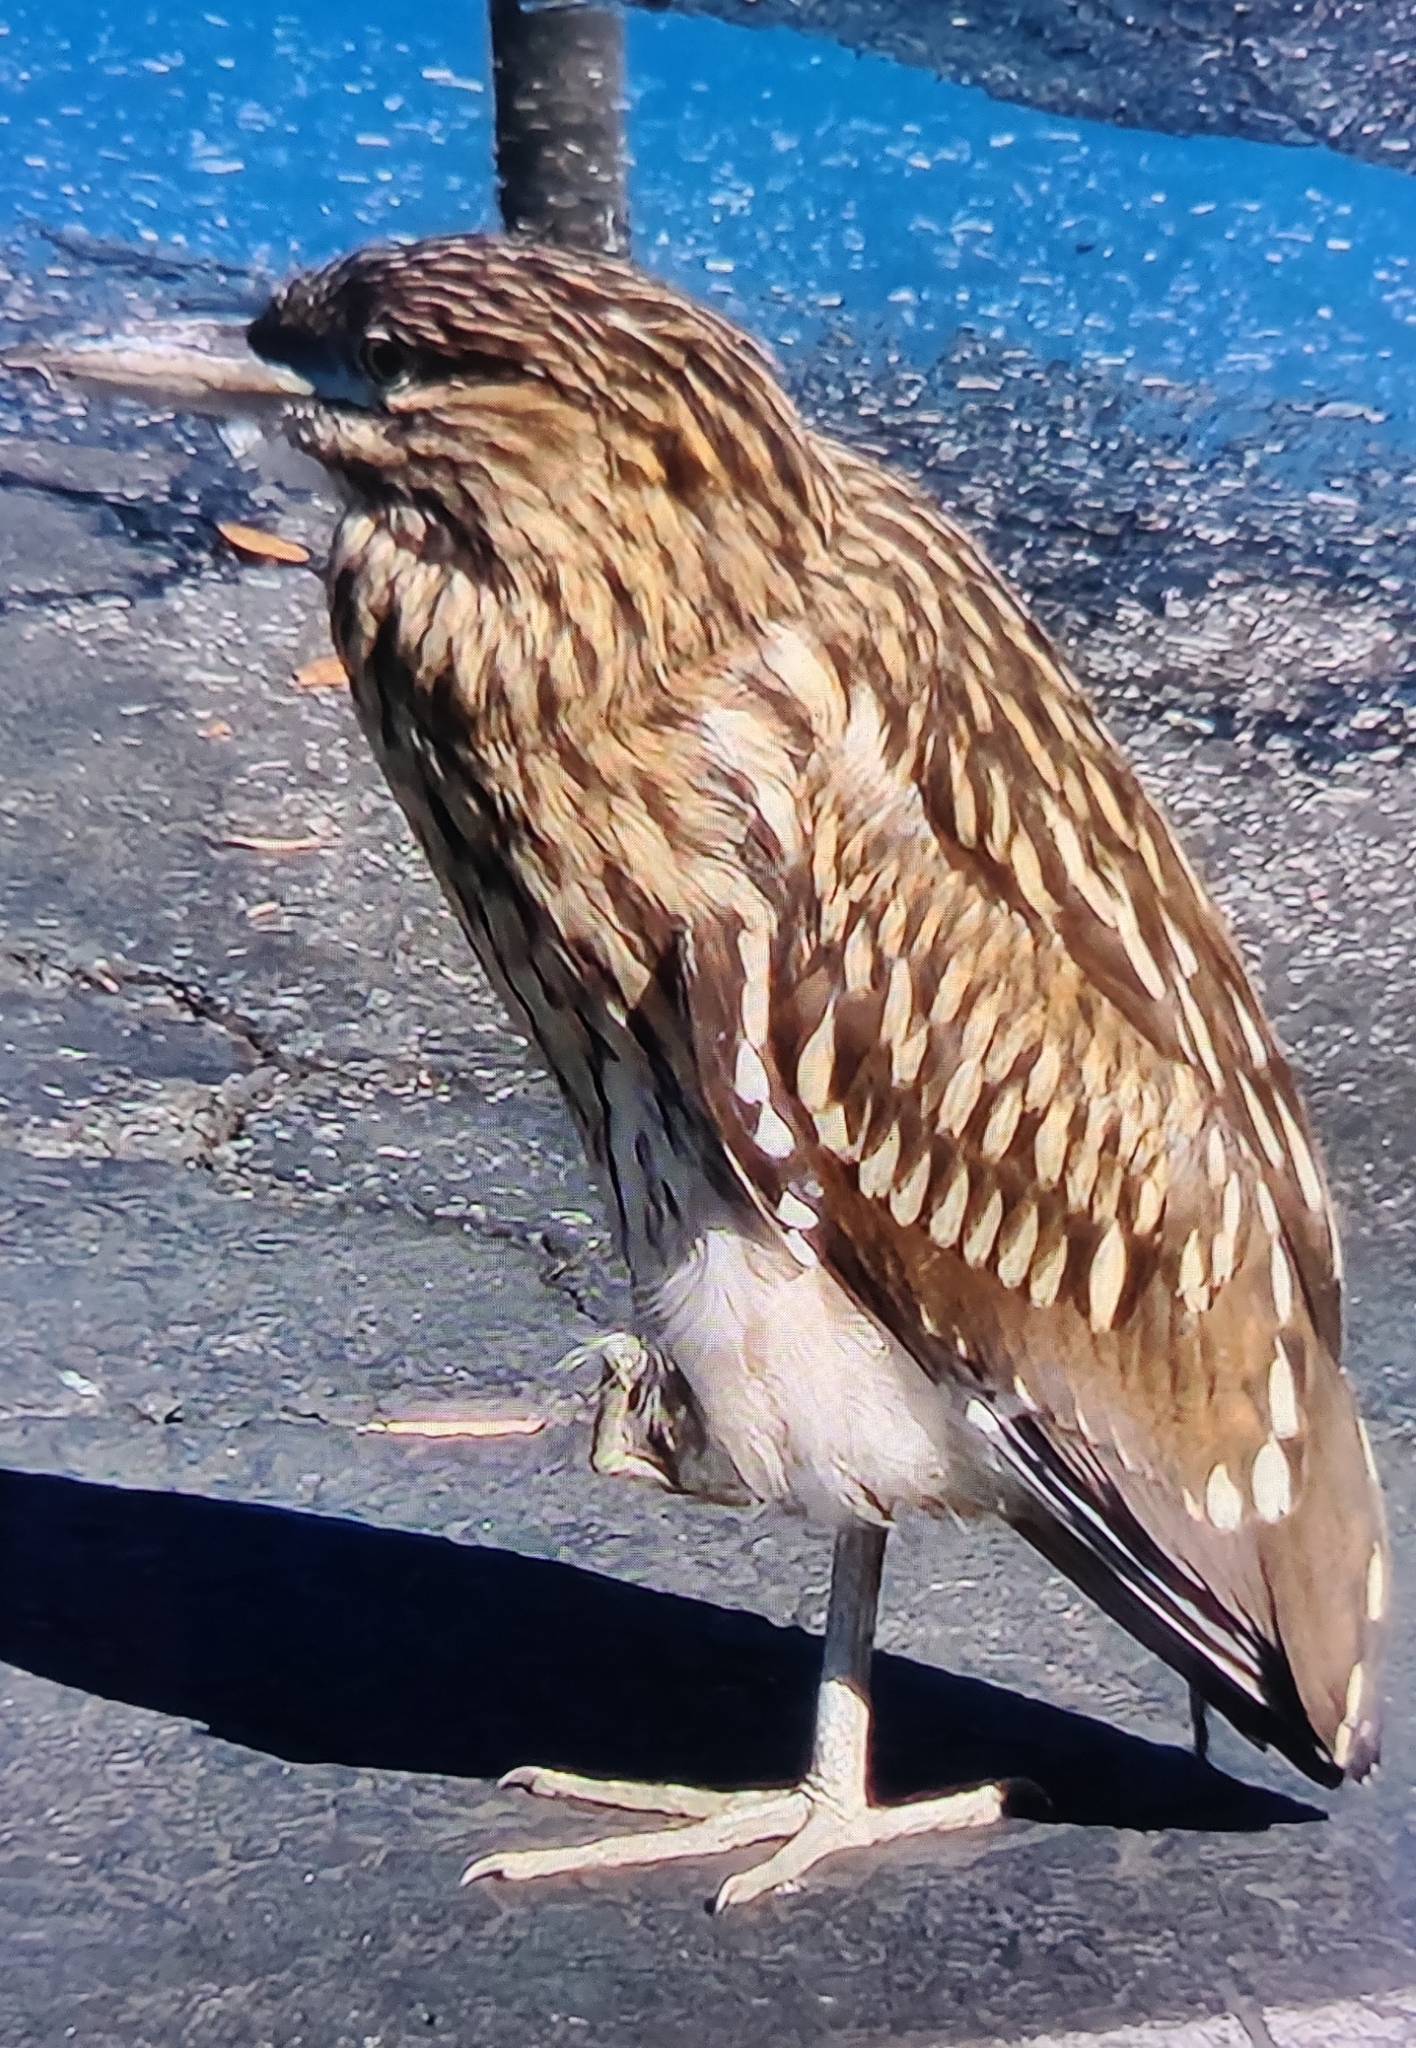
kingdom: Animalia
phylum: Chordata
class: Aves
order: Pelecaniformes
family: Ardeidae
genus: Nycticorax
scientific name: Nycticorax nycticorax
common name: Black-crowned night heron
